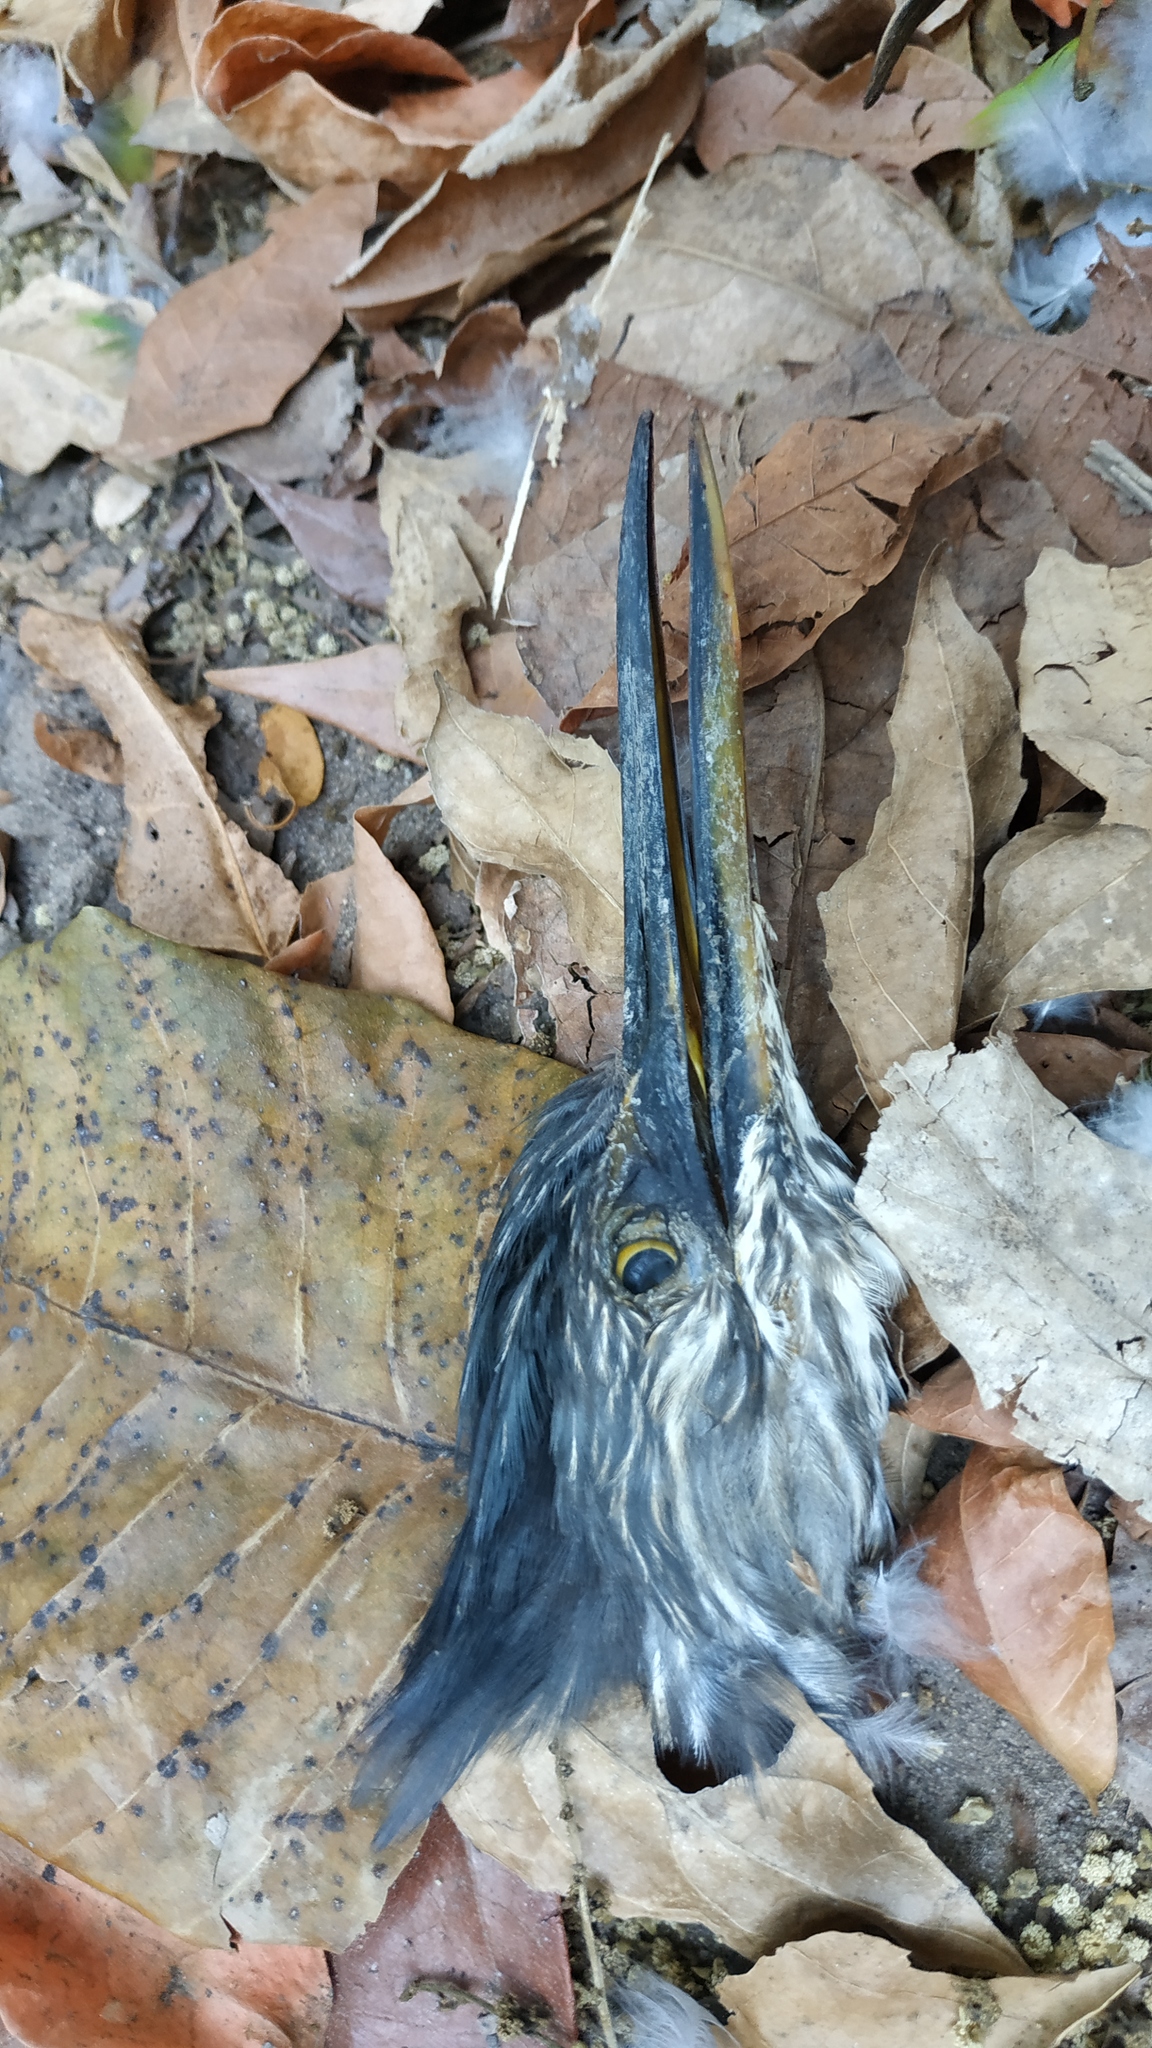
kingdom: Animalia
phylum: Chordata
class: Aves
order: Pelecaniformes
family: Ardeidae
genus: Butorides
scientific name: Butorides striata
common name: Striated heron
